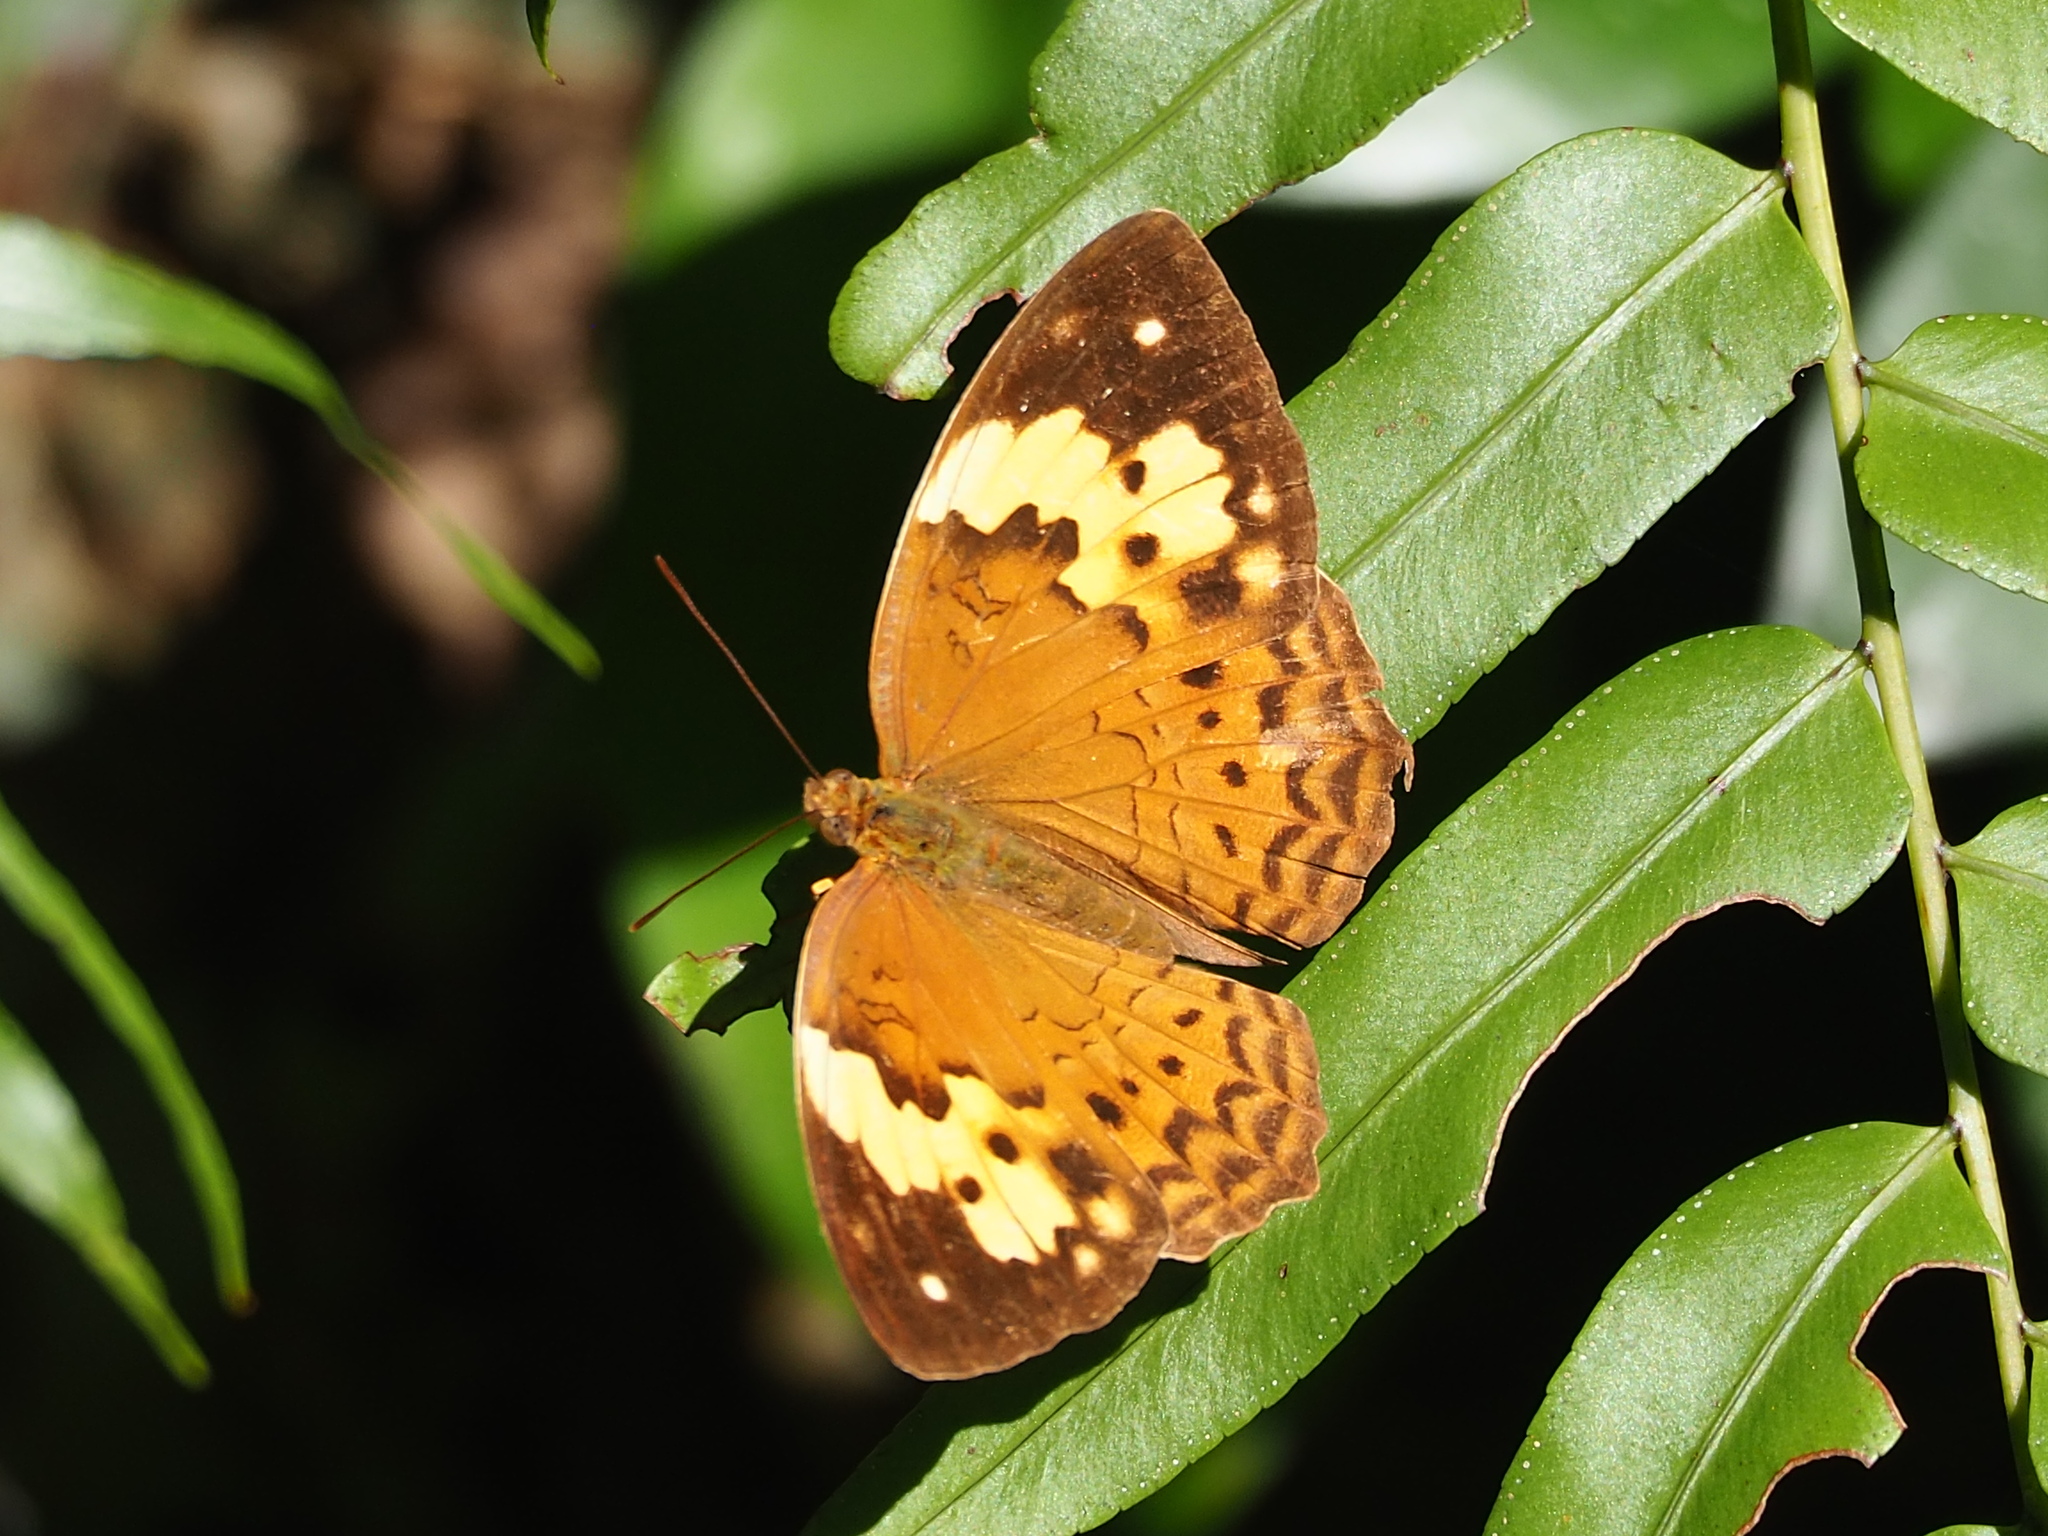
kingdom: Animalia
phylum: Arthropoda
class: Insecta
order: Lepidoptera
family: Nymphalidae
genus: Cupha
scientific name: Cupha erymanthis
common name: Rustic
